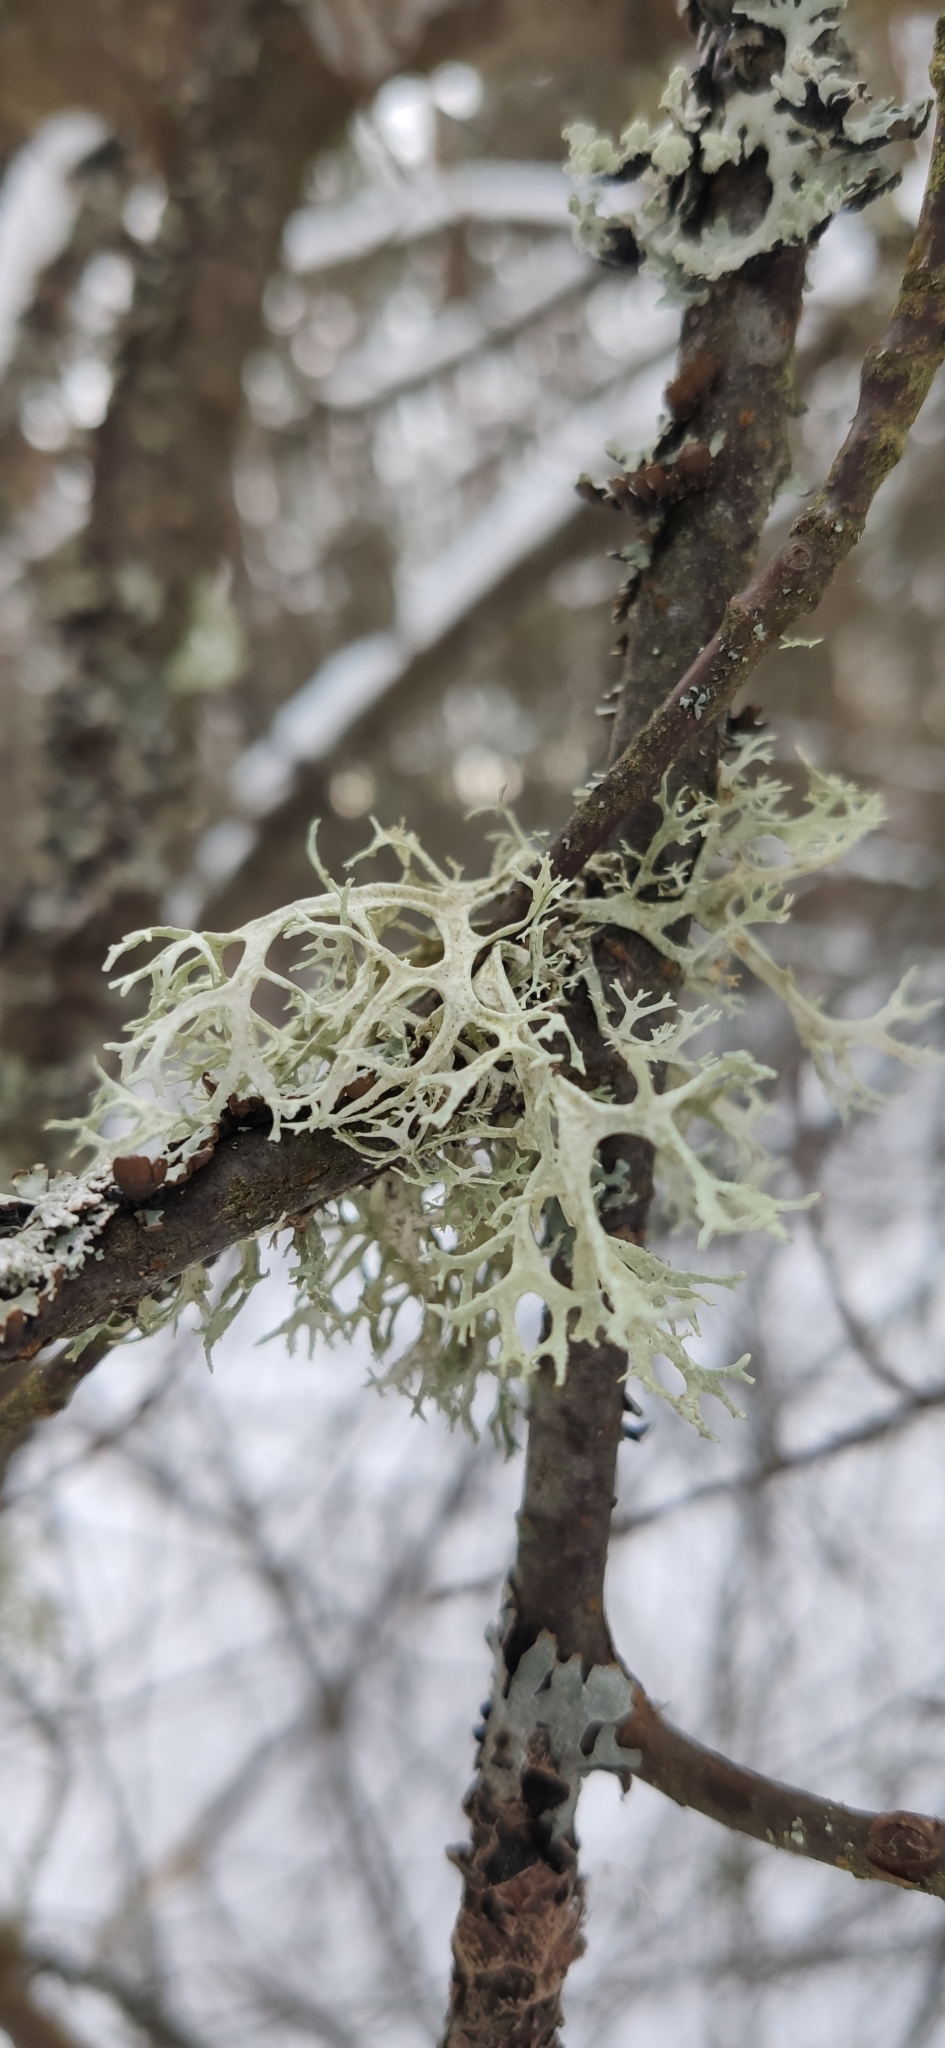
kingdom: Fungi
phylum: Ascomycota
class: Lecanoromycetes
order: Lecanorales
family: Parmeliaceae
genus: Evernia
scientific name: Evernia prunastri
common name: Oak moss
